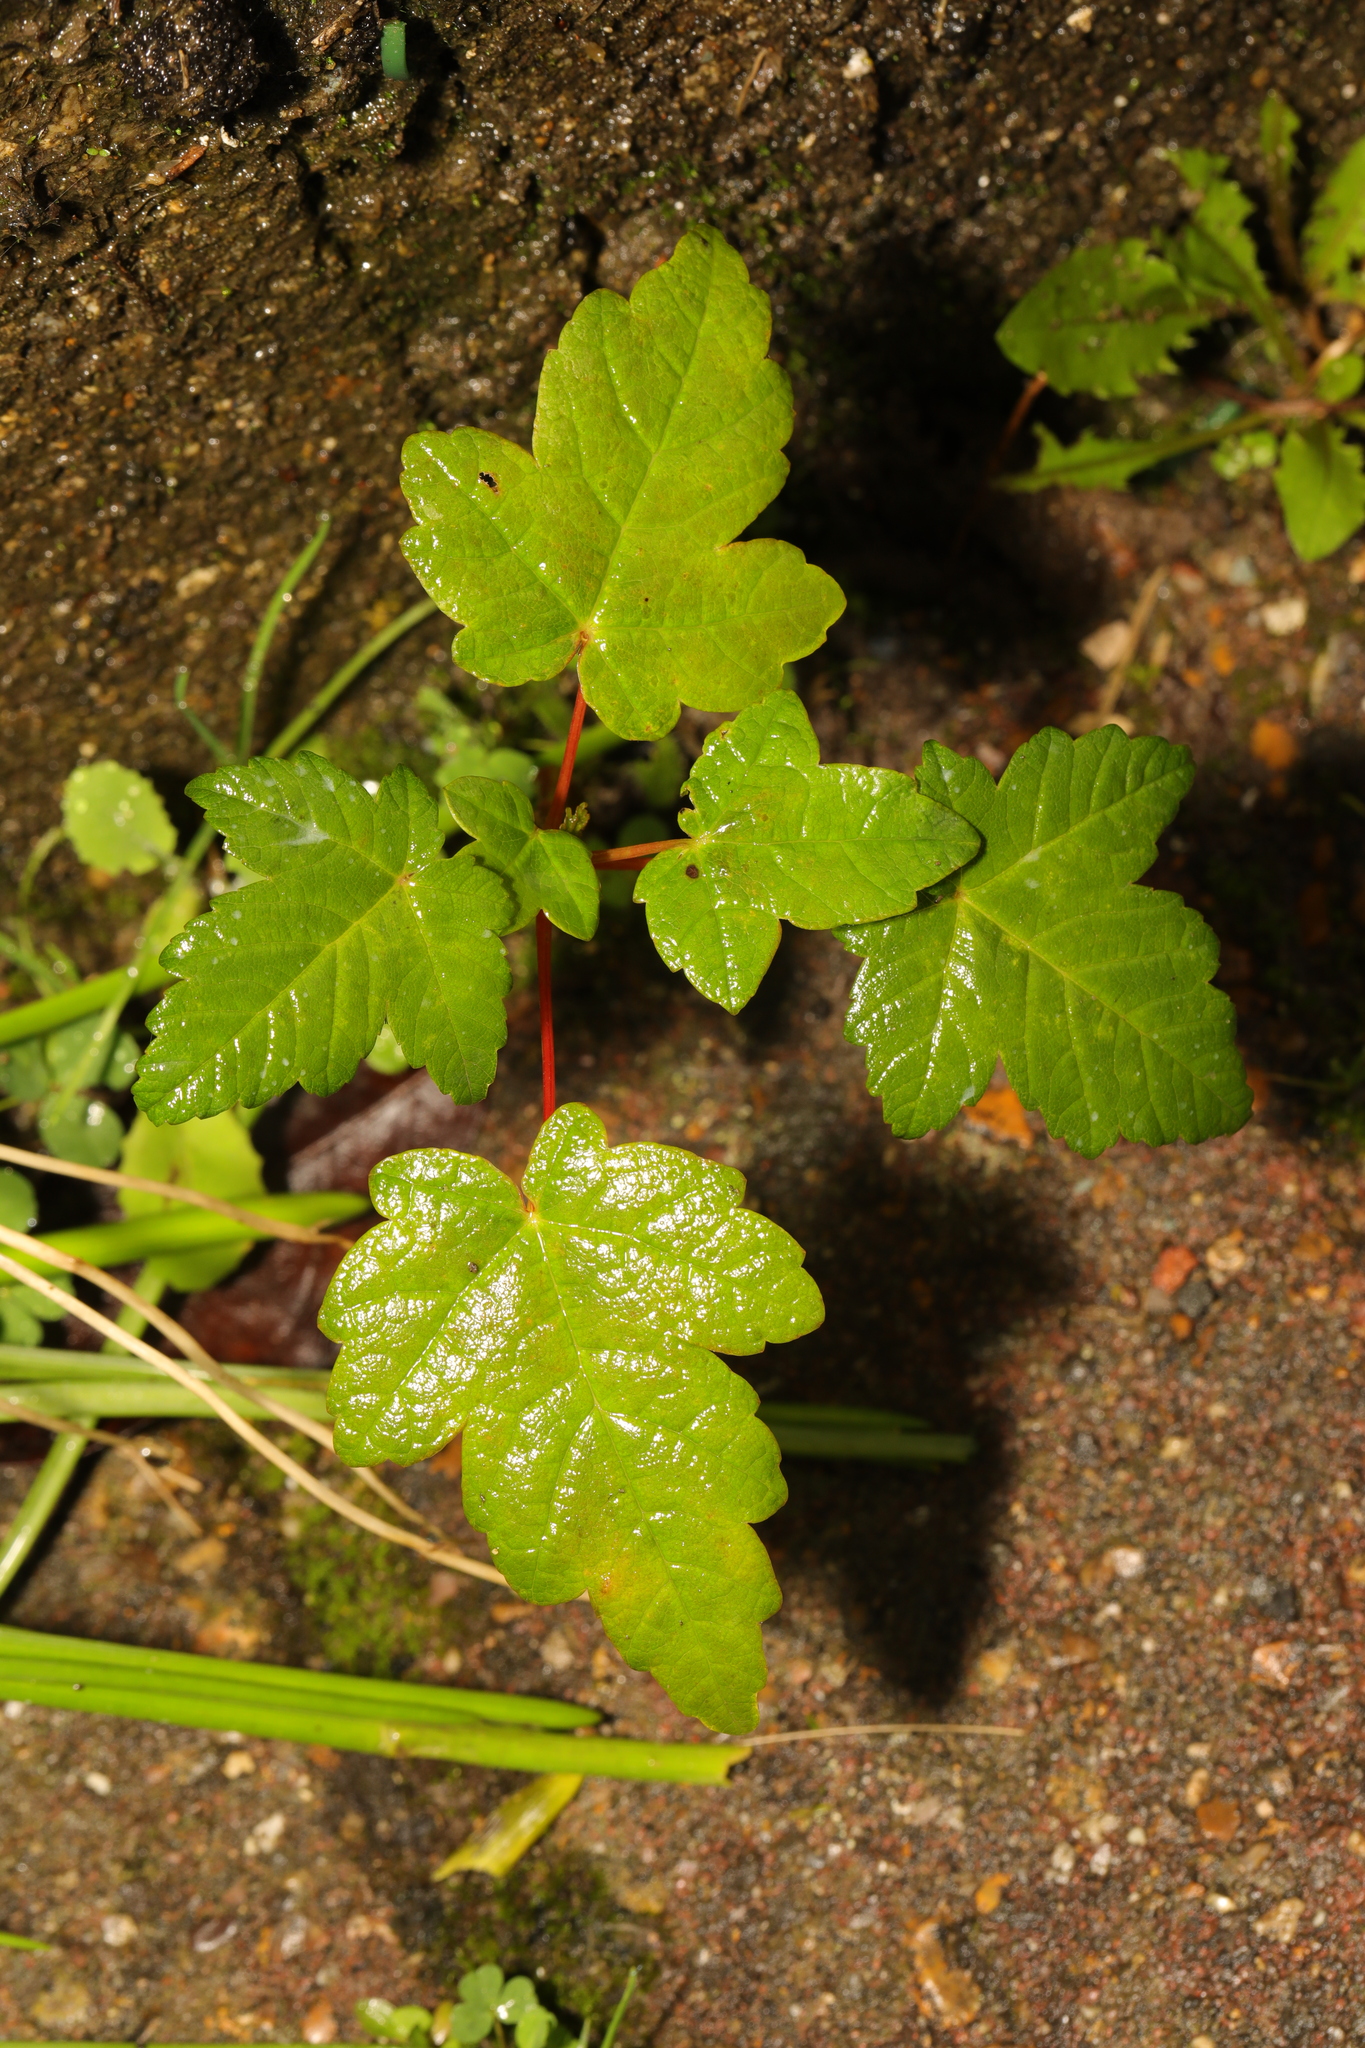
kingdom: Plantae
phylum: Tracheophyta
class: Magnoliopsida
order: Sapindales
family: Sapindaceae
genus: Acer
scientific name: Acer pseudoplatanus
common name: Sycamore
